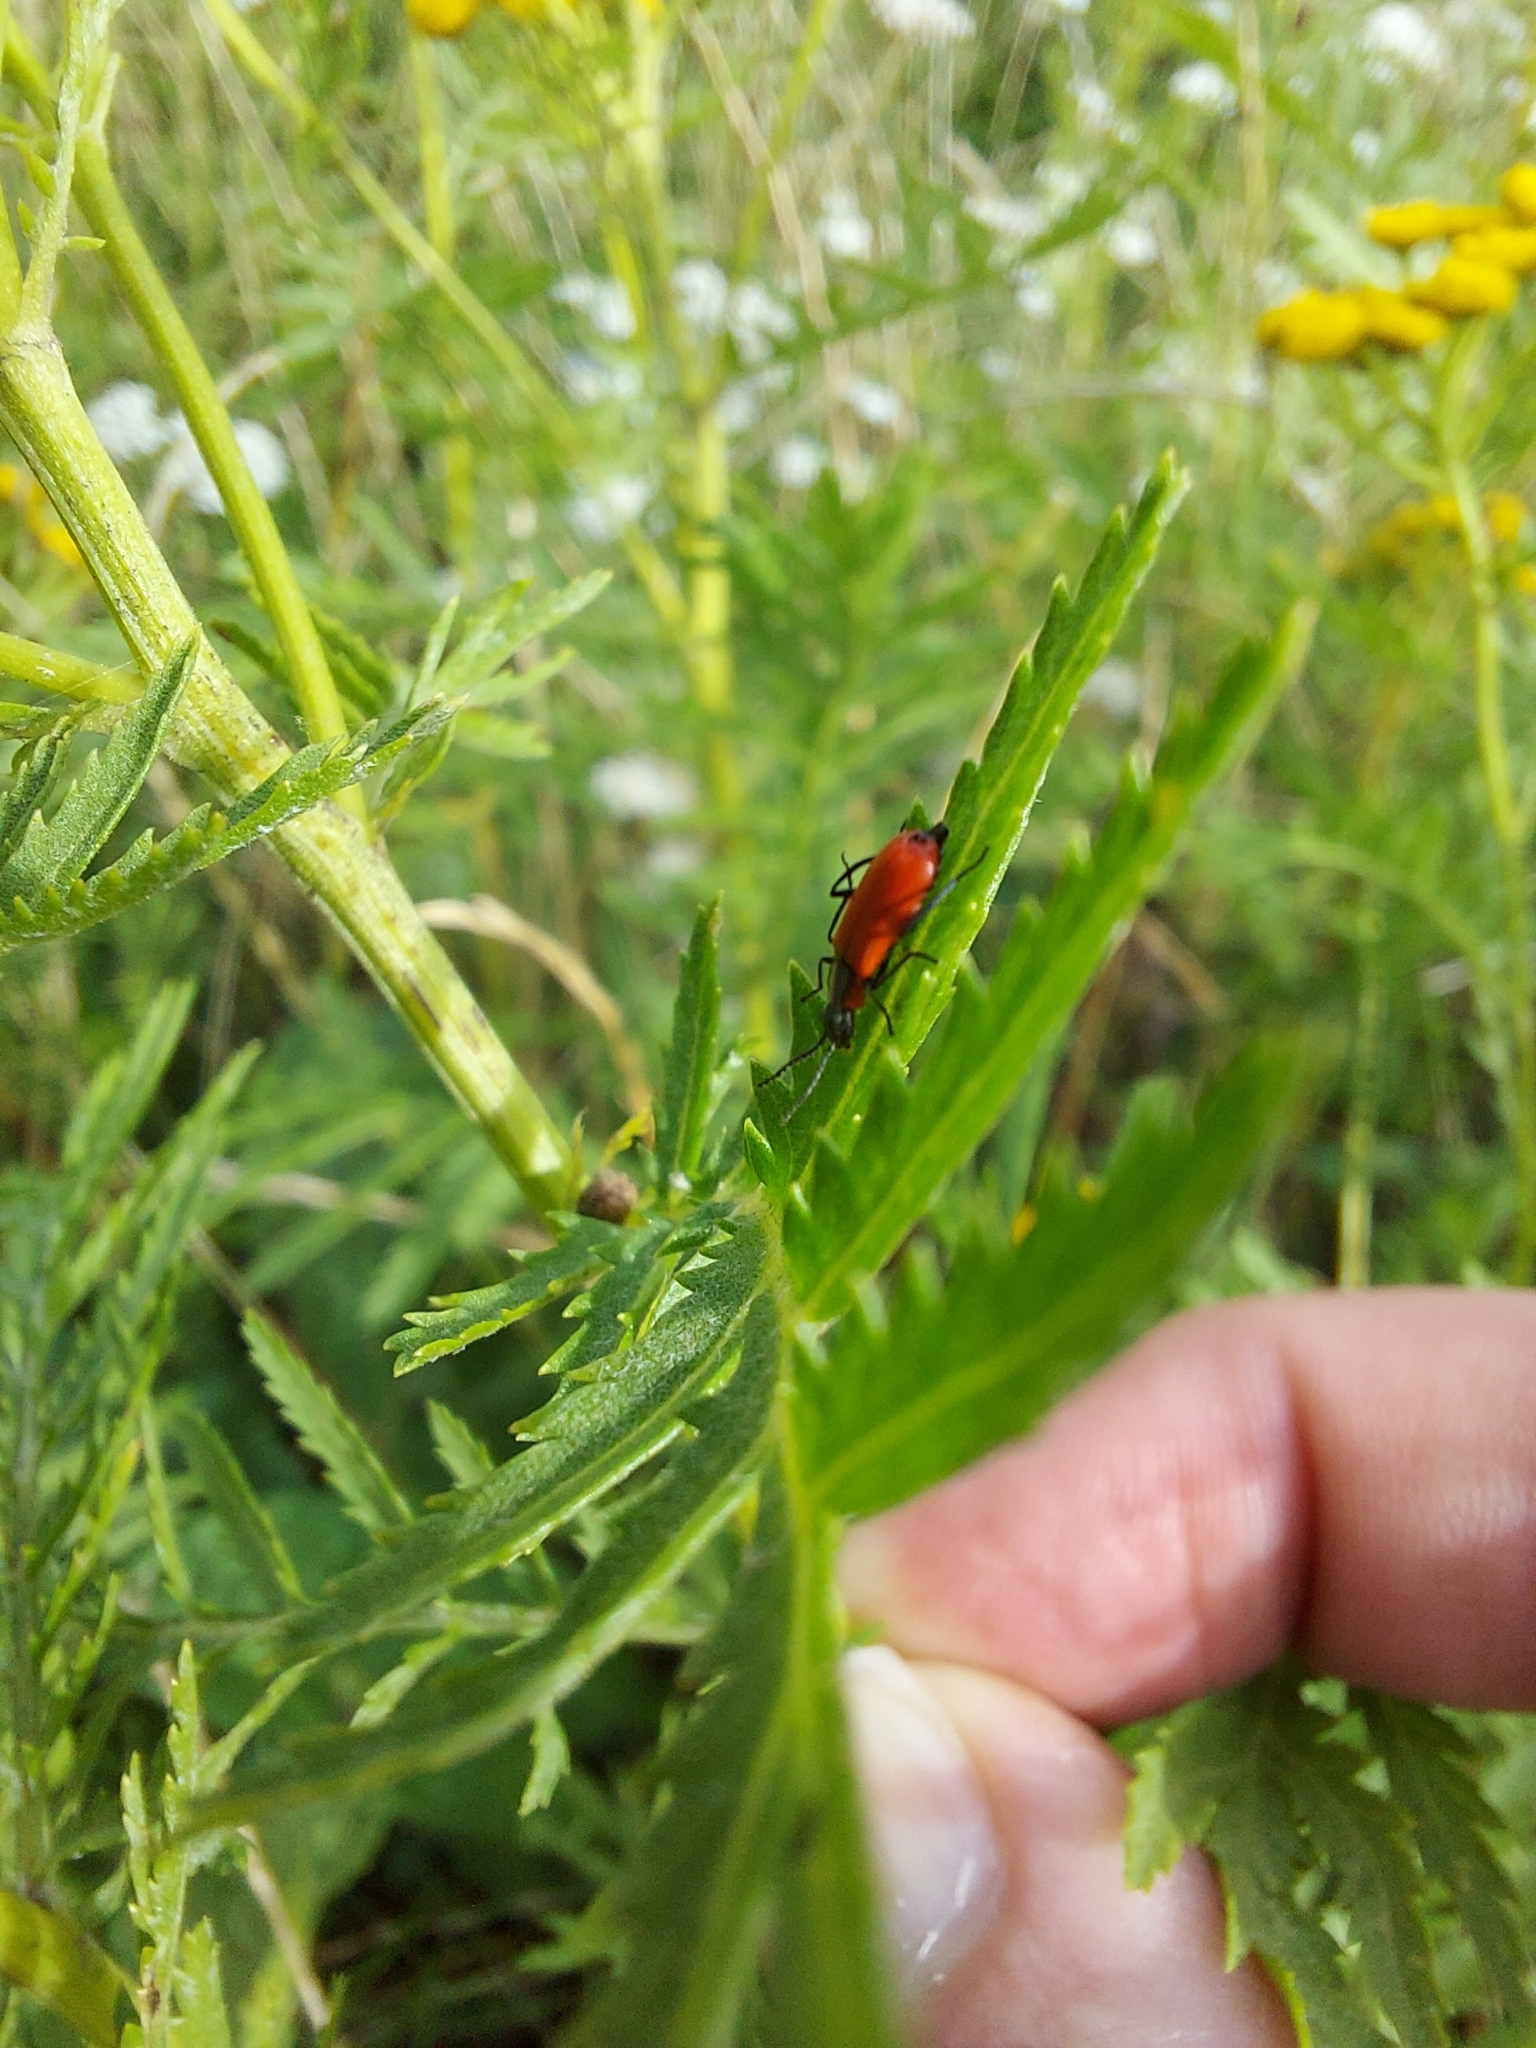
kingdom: Animalia
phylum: Arthropoda
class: Insecta
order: Coleoptera
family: Melyridae
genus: Anthocomus
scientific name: Anthocomus rufus
